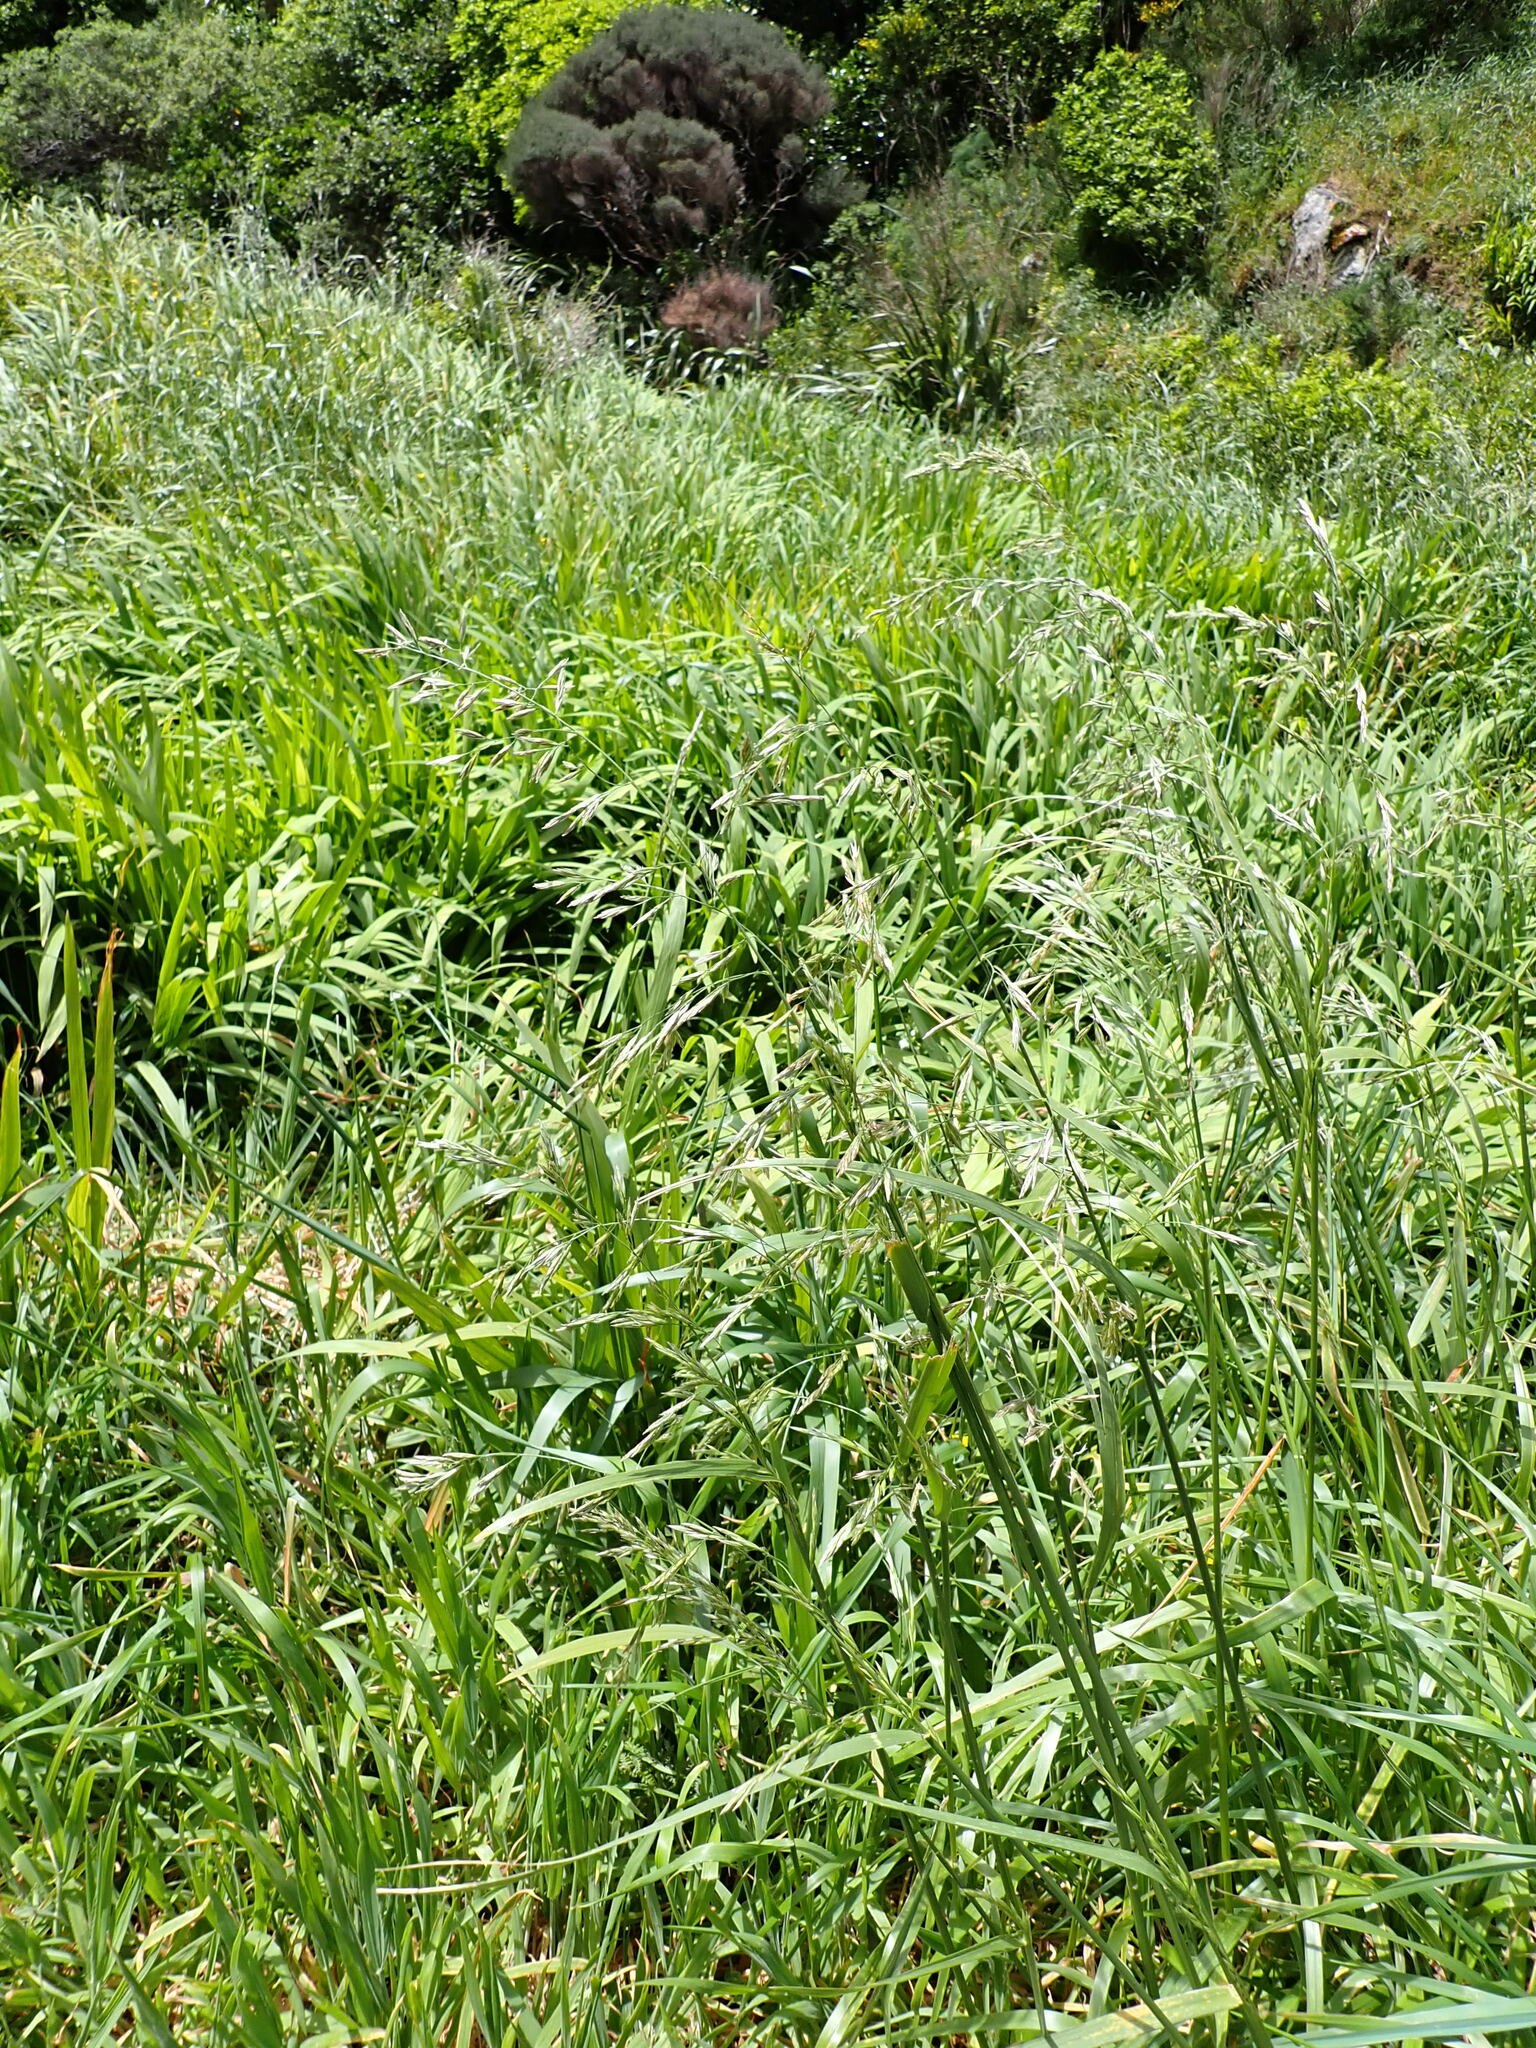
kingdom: Plantae
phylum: Tracheophyta
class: Liliopsida
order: Poales
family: Poaceae
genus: Lolium
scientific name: Lolium arundinaceum
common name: Reed fescue
